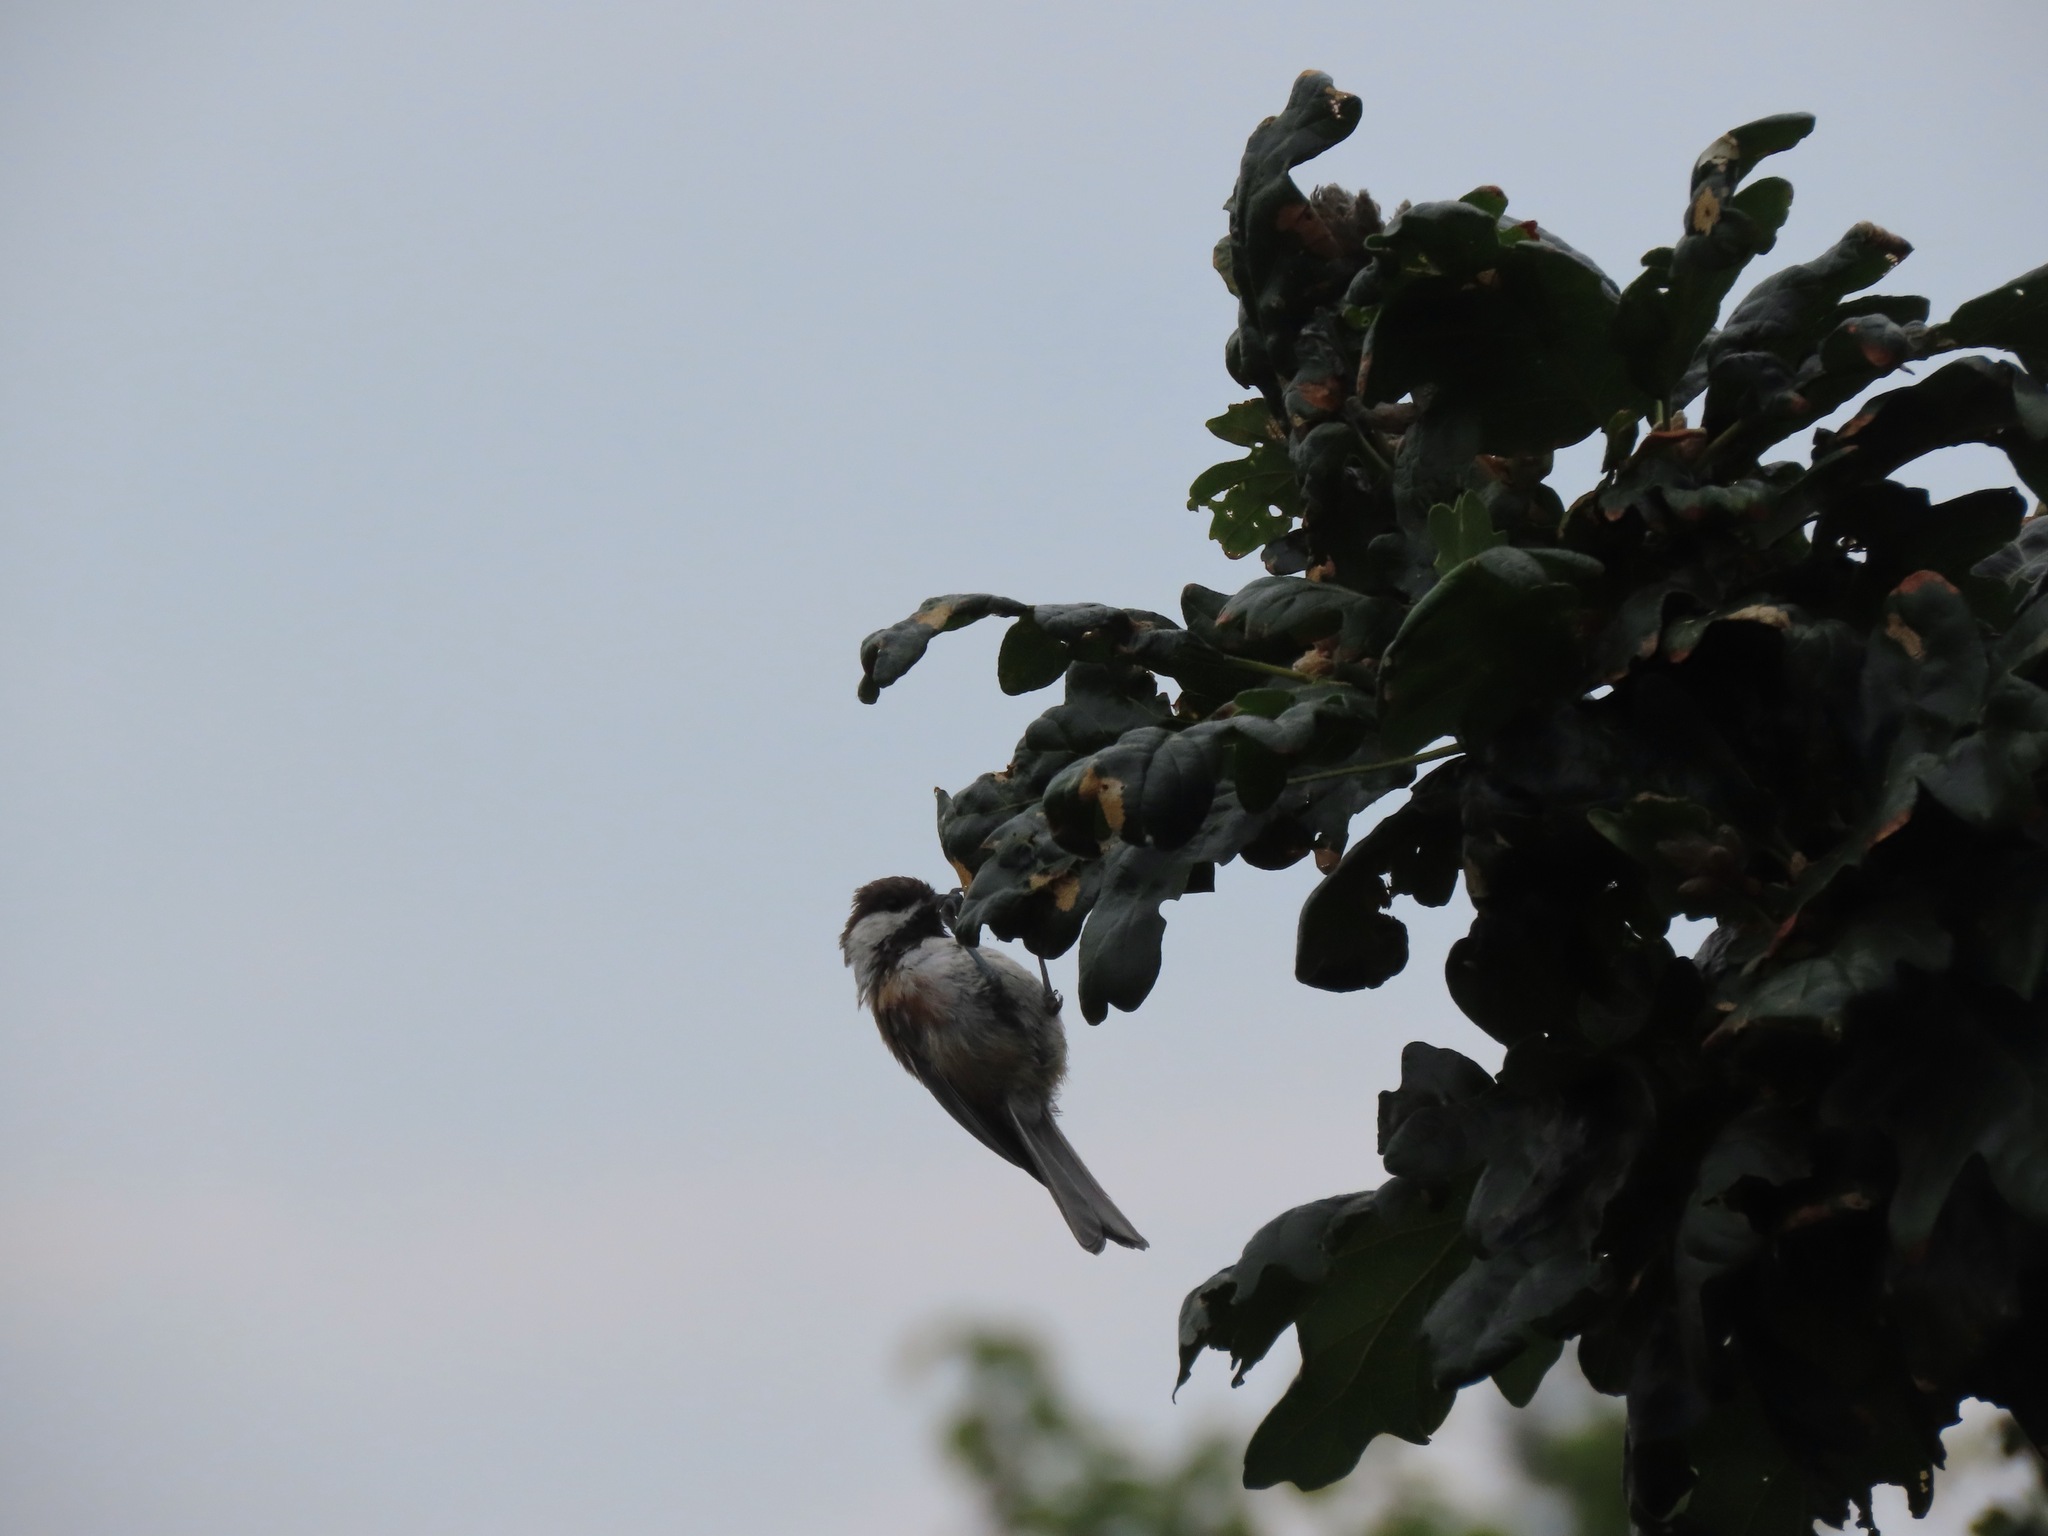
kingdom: Animalia
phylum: Chordata
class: Aves
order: Passeriformes
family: Paridae
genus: Poecile
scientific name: Poecile rufescens
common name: Chestnut-backed chickadee
